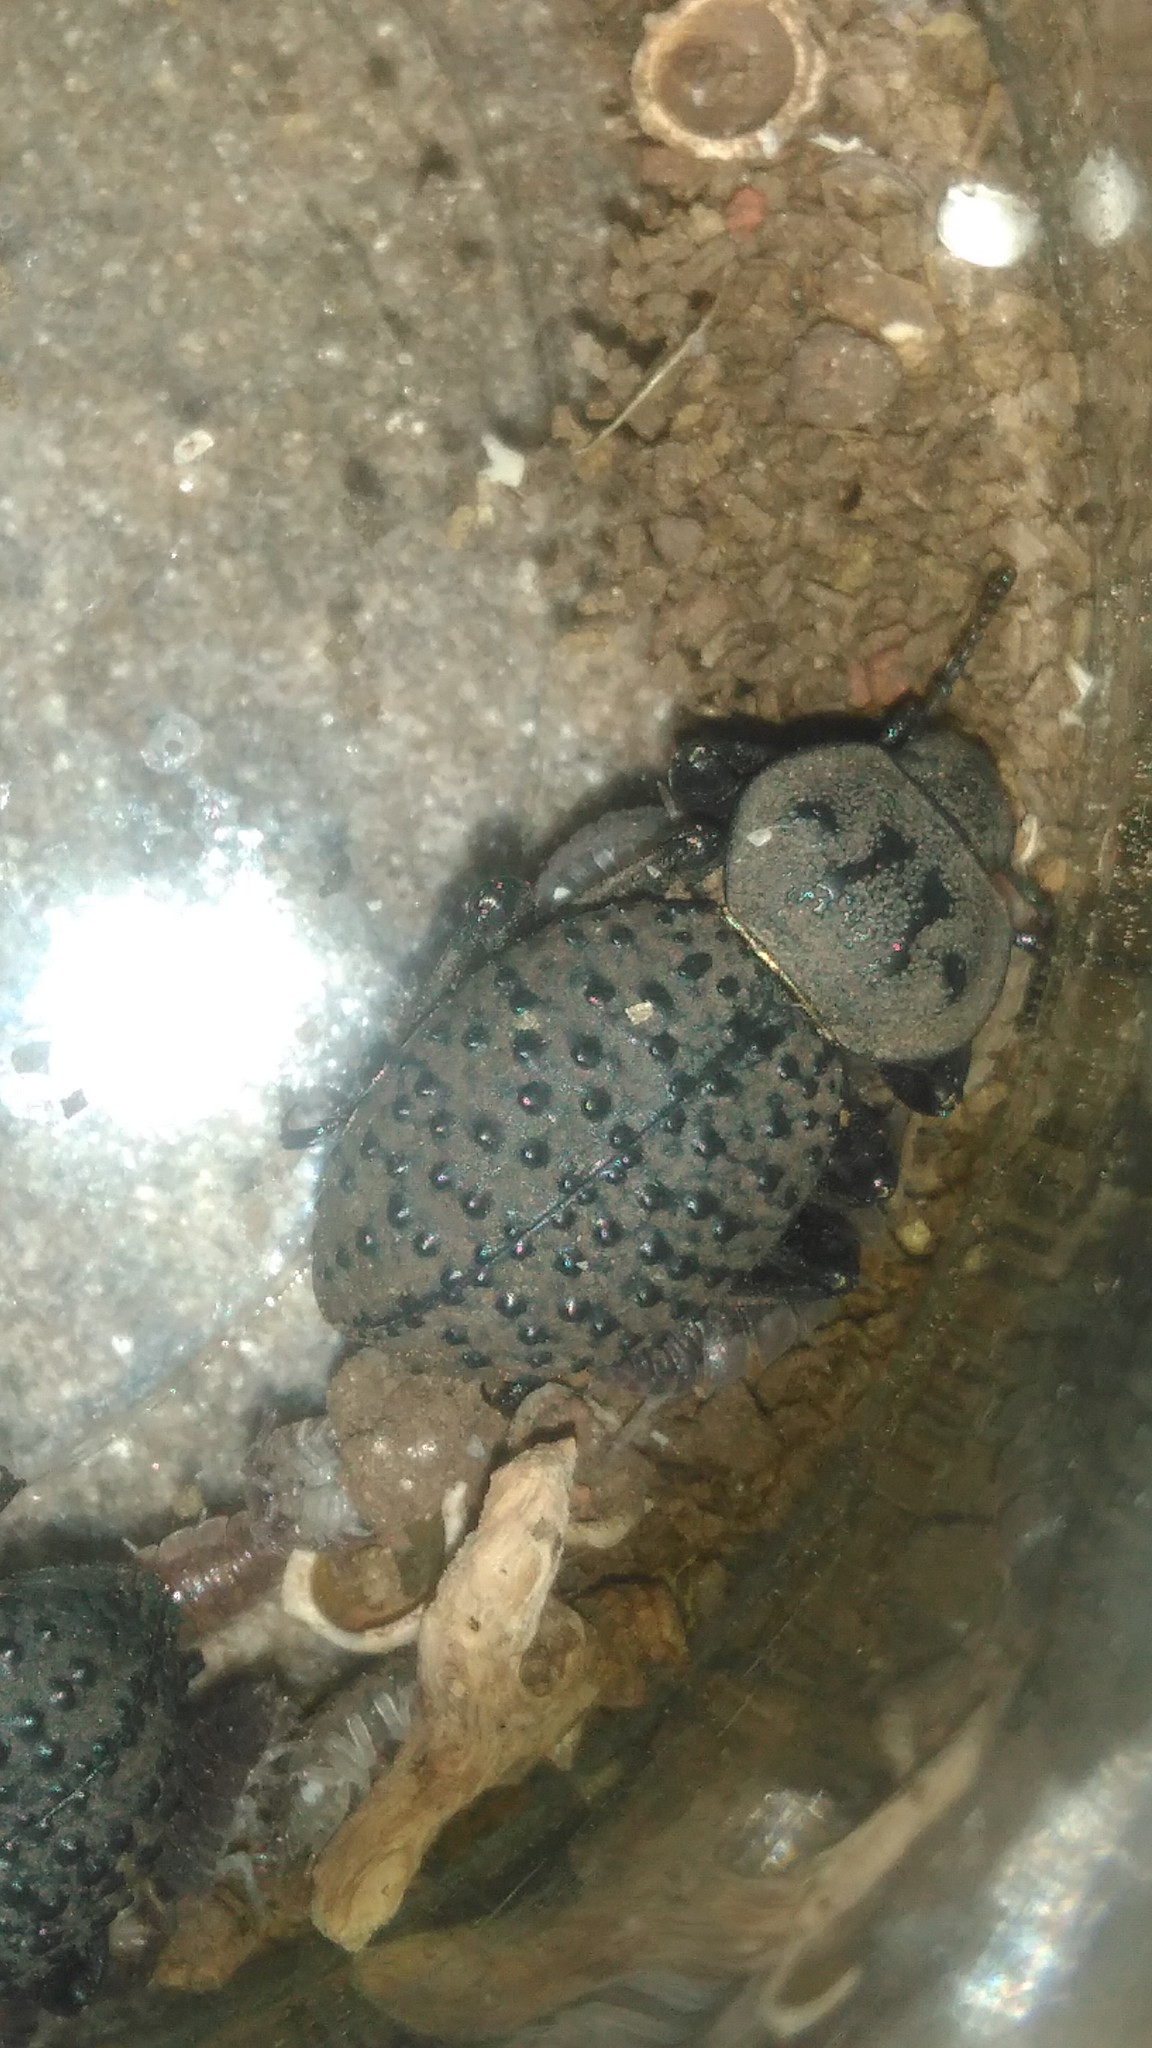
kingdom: Animalia
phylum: Arthropoda
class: Insecta
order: Coleoptera
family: Tenebrionidae
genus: Scotobius
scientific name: Scotobius pilularius
